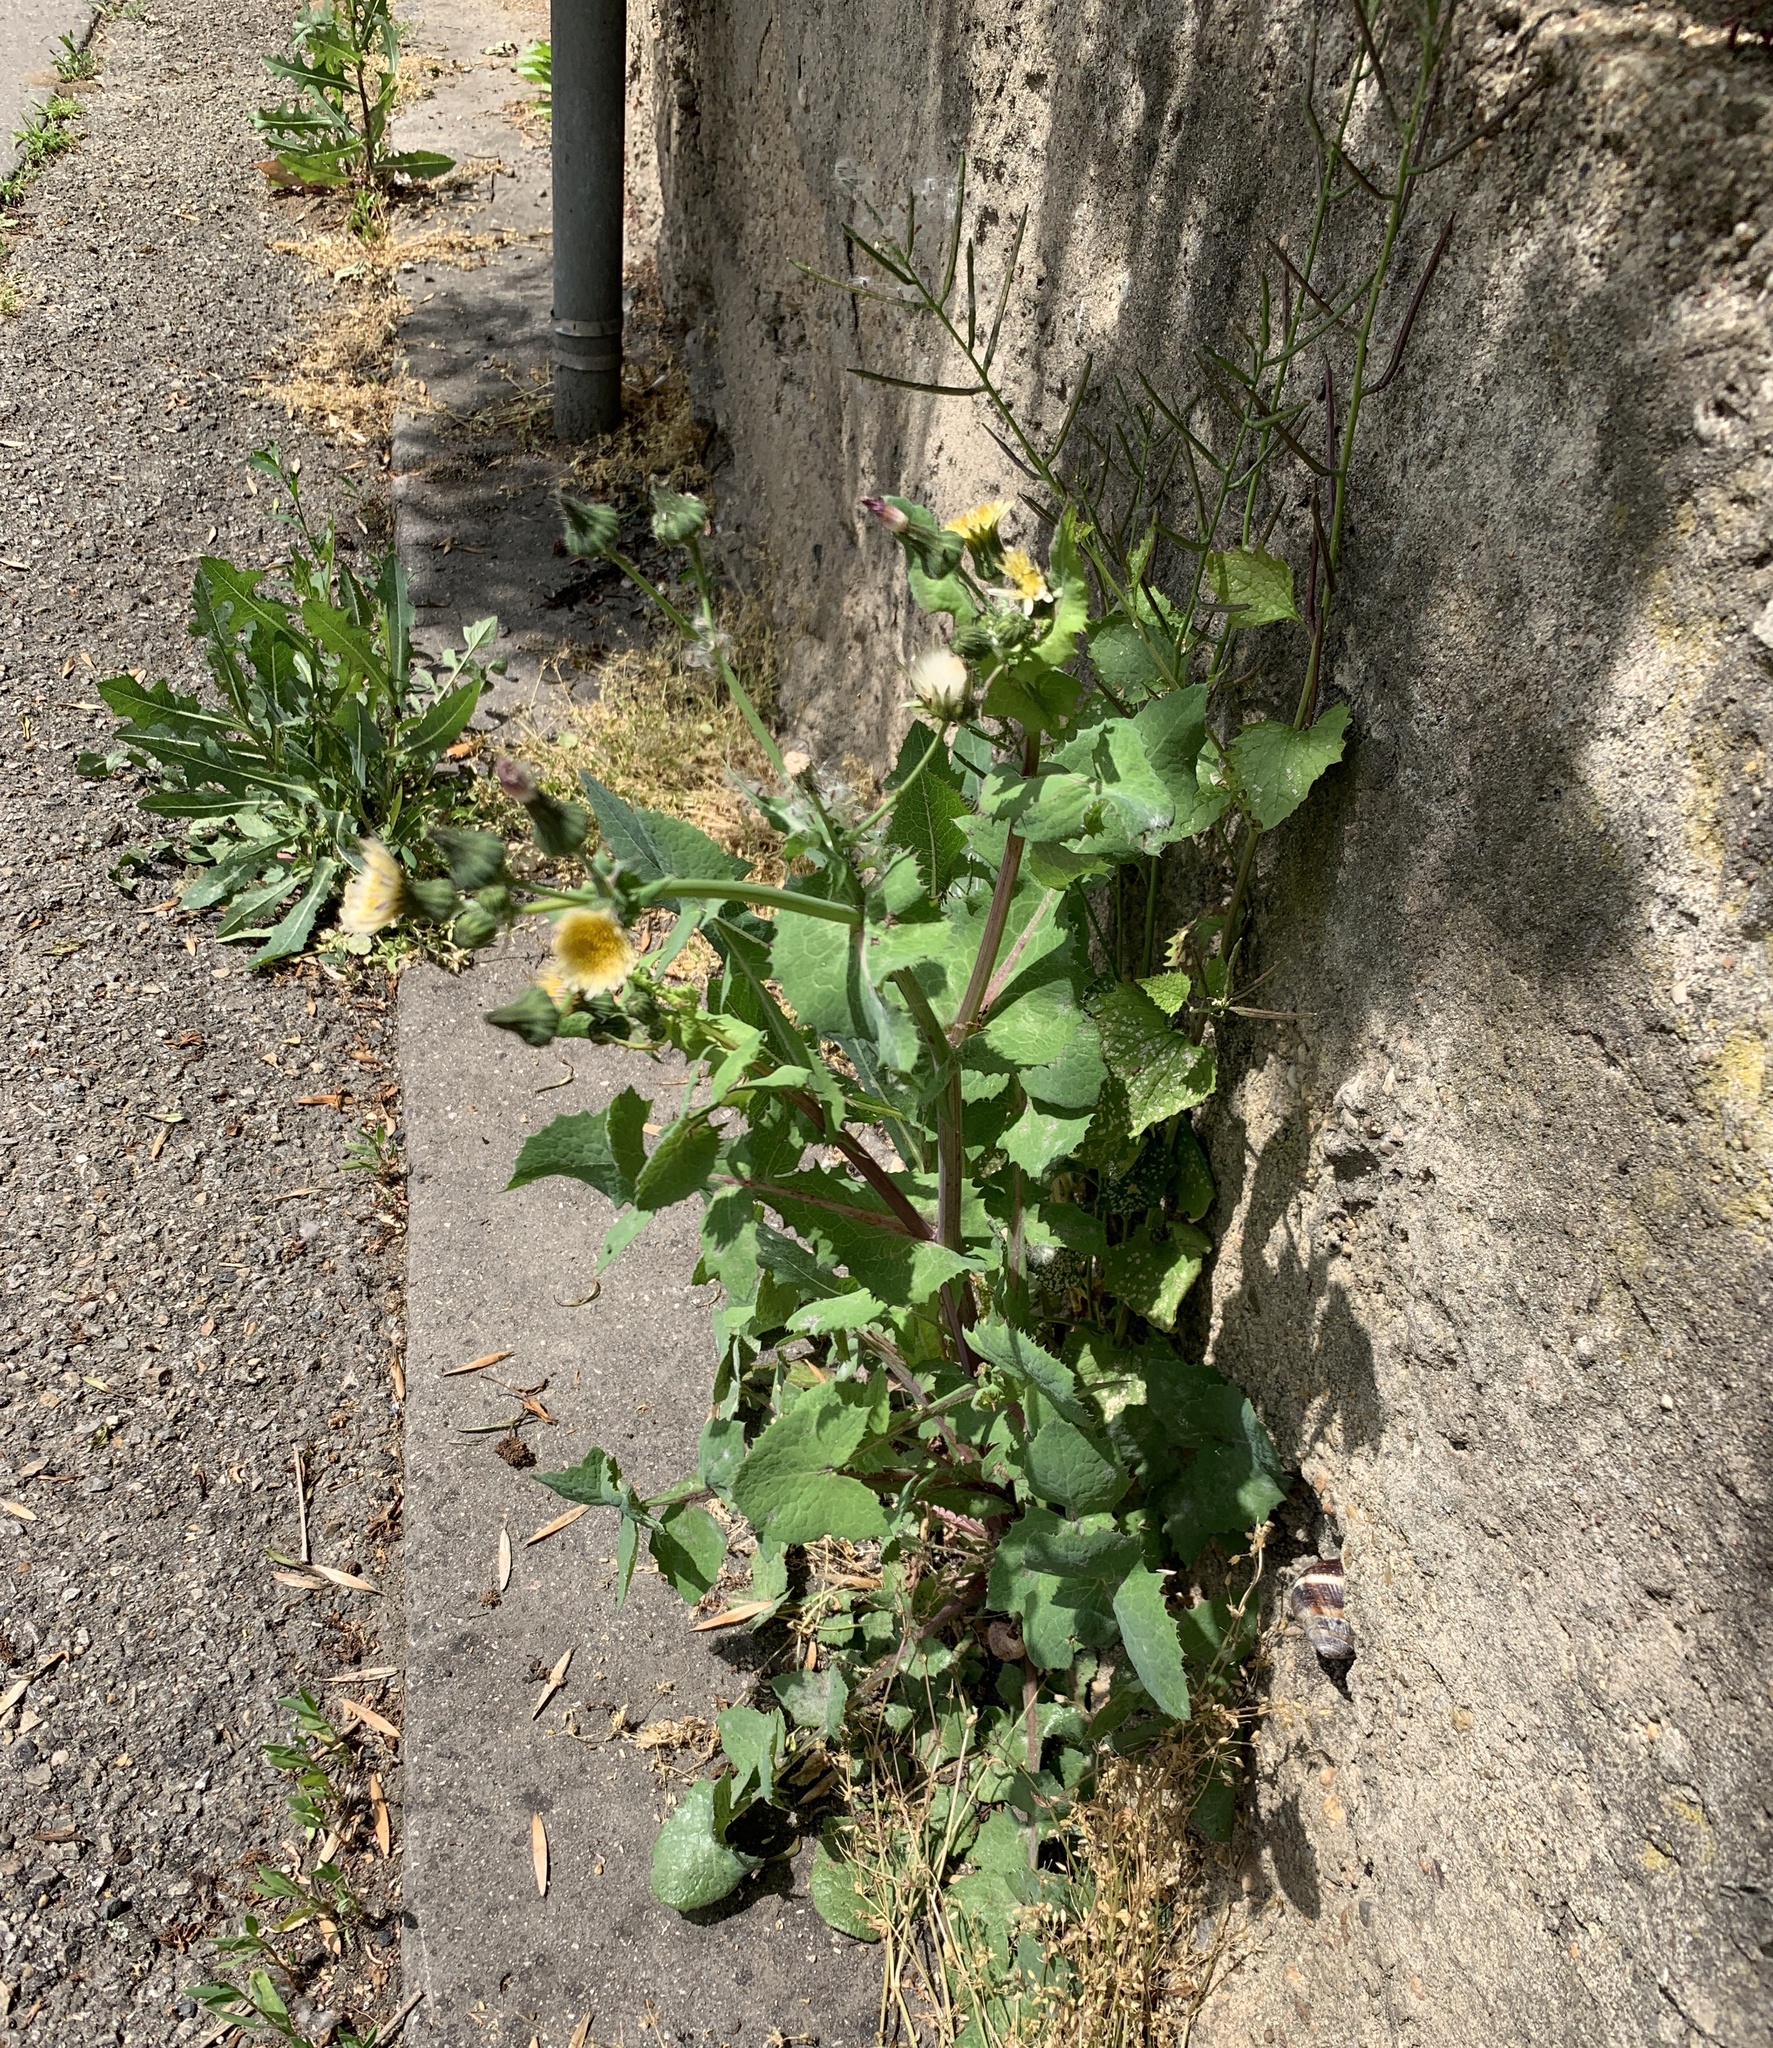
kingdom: Plantae
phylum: Tracheophyta
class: Magnoliopsida
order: Asterales
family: Asteraceae
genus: Sonchus
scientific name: Sonchus oleraceus
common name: Common sowthistle
